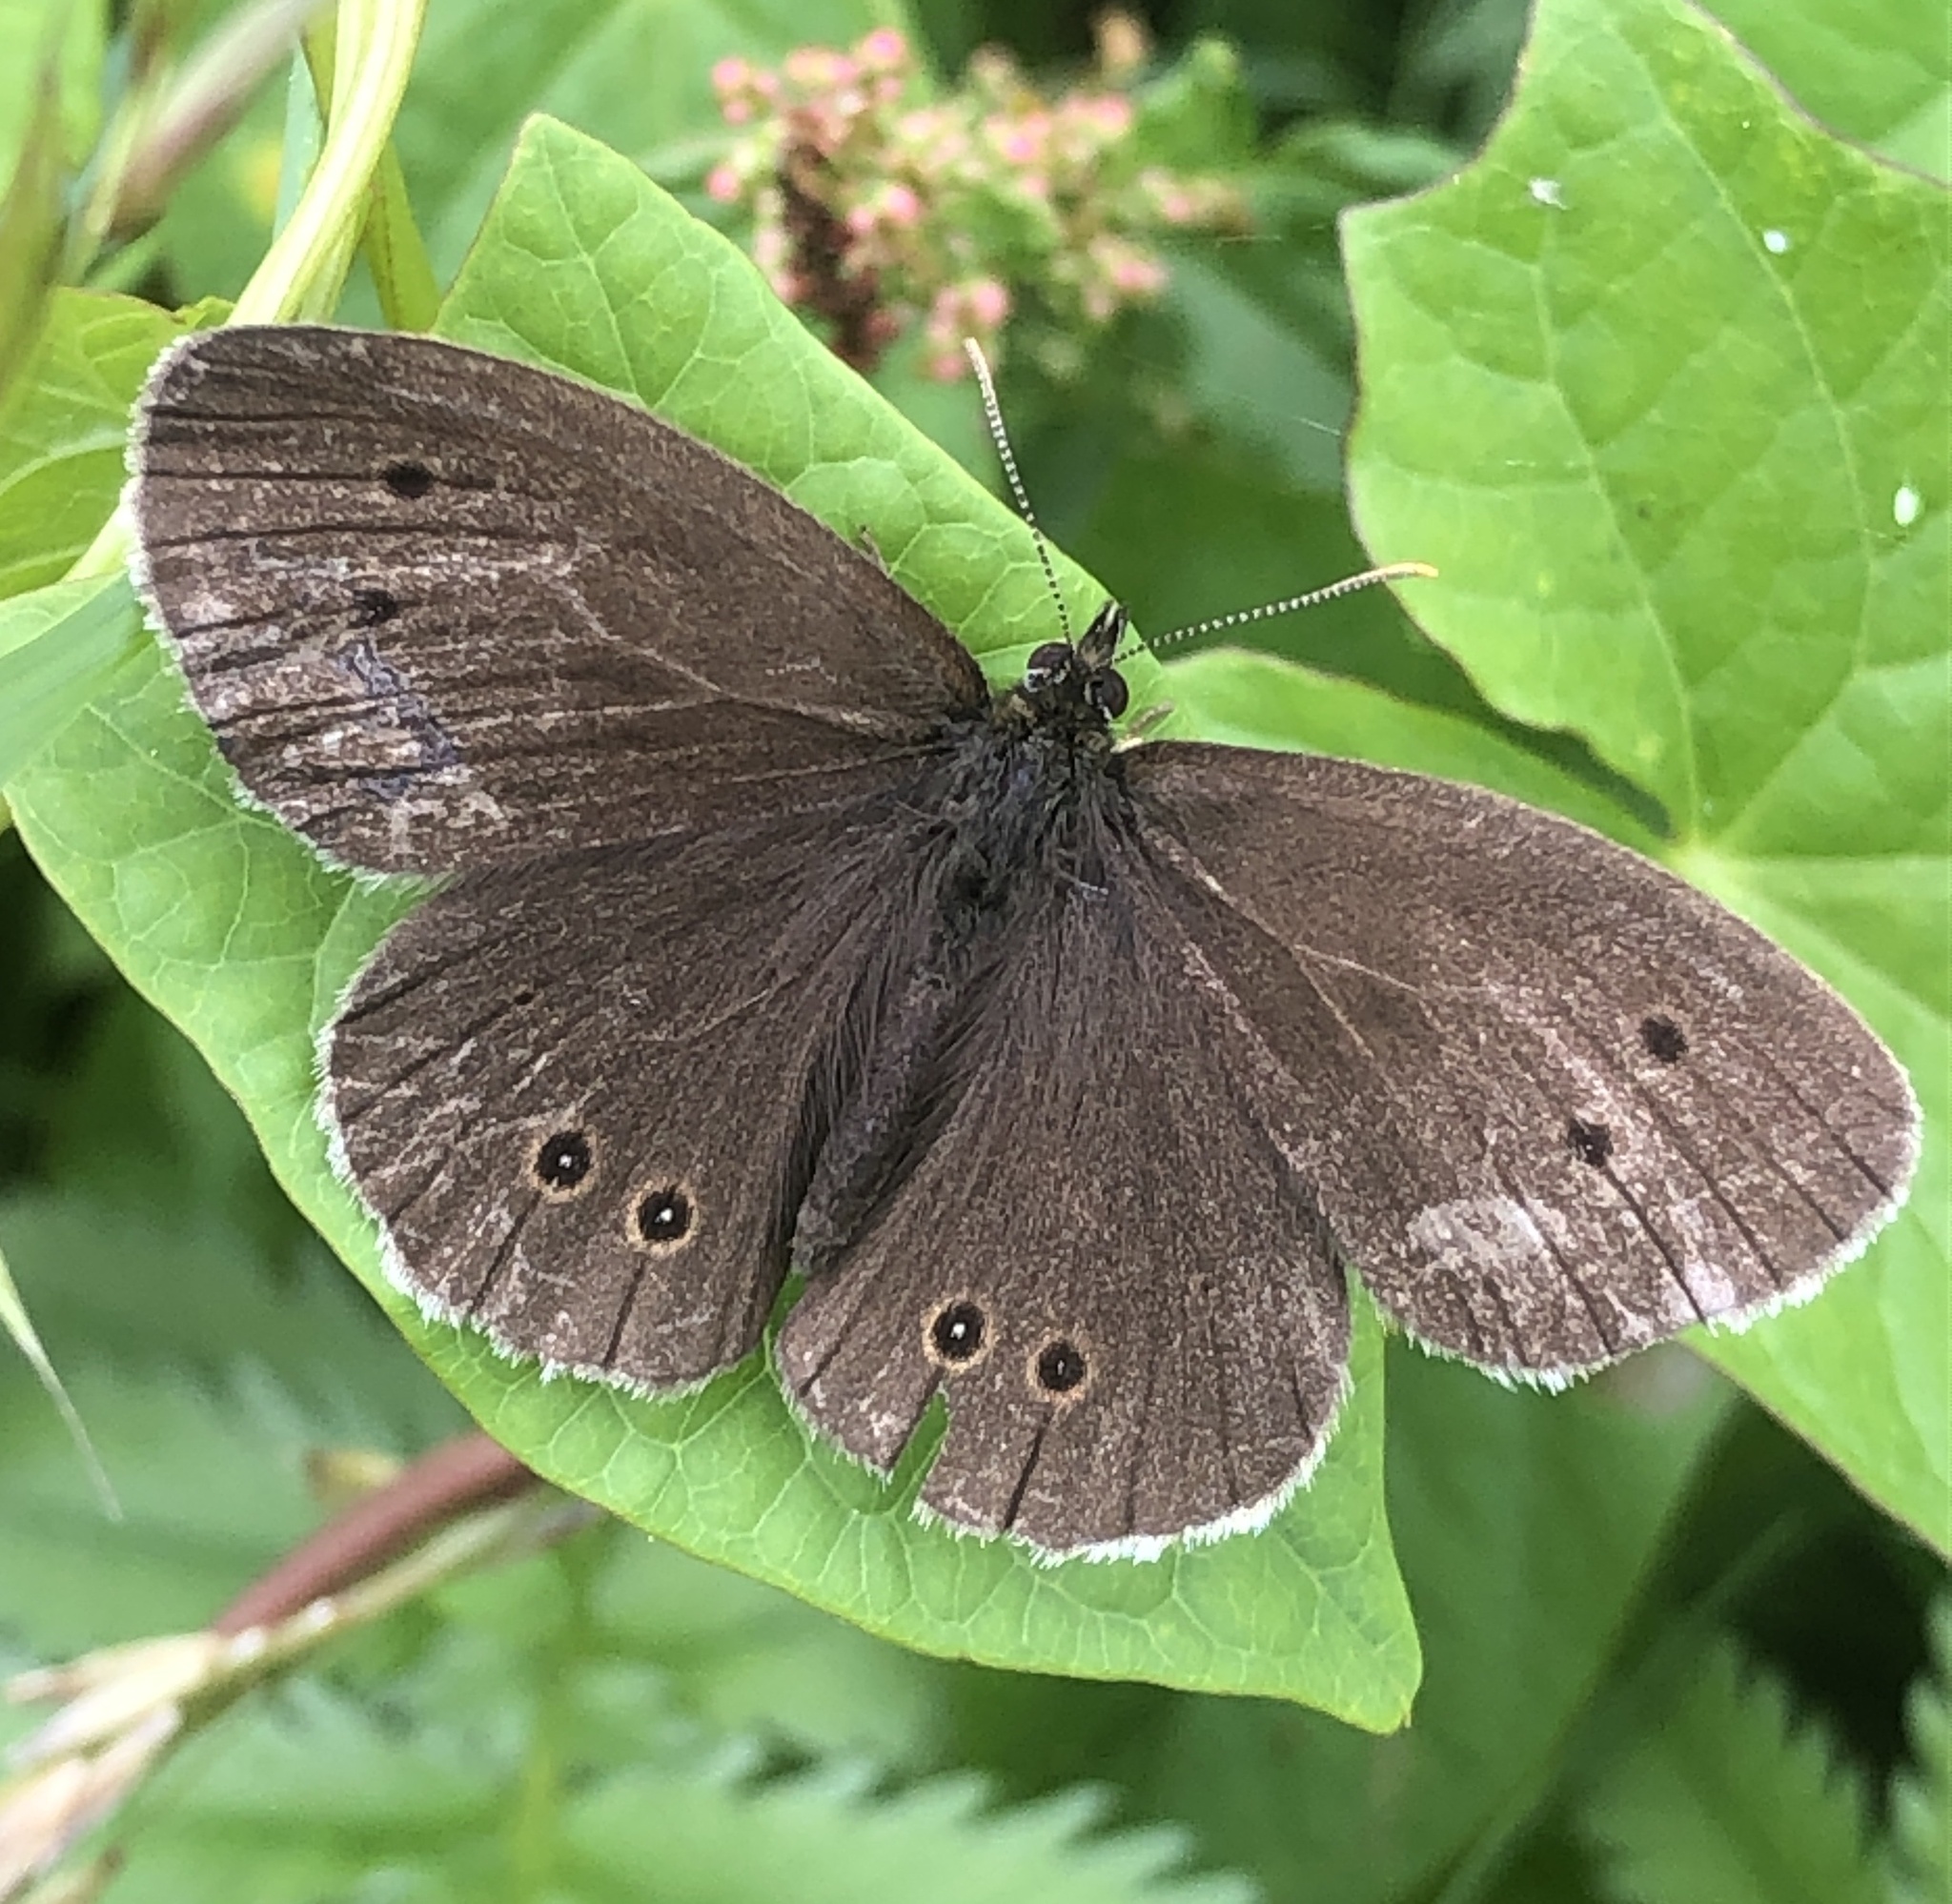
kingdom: Animalia
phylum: Arthropoda
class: Insecta
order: Lepidoptera
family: Nymphalidae
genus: Aphantopus
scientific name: Aphantopus hyperantus
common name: Ringlet
